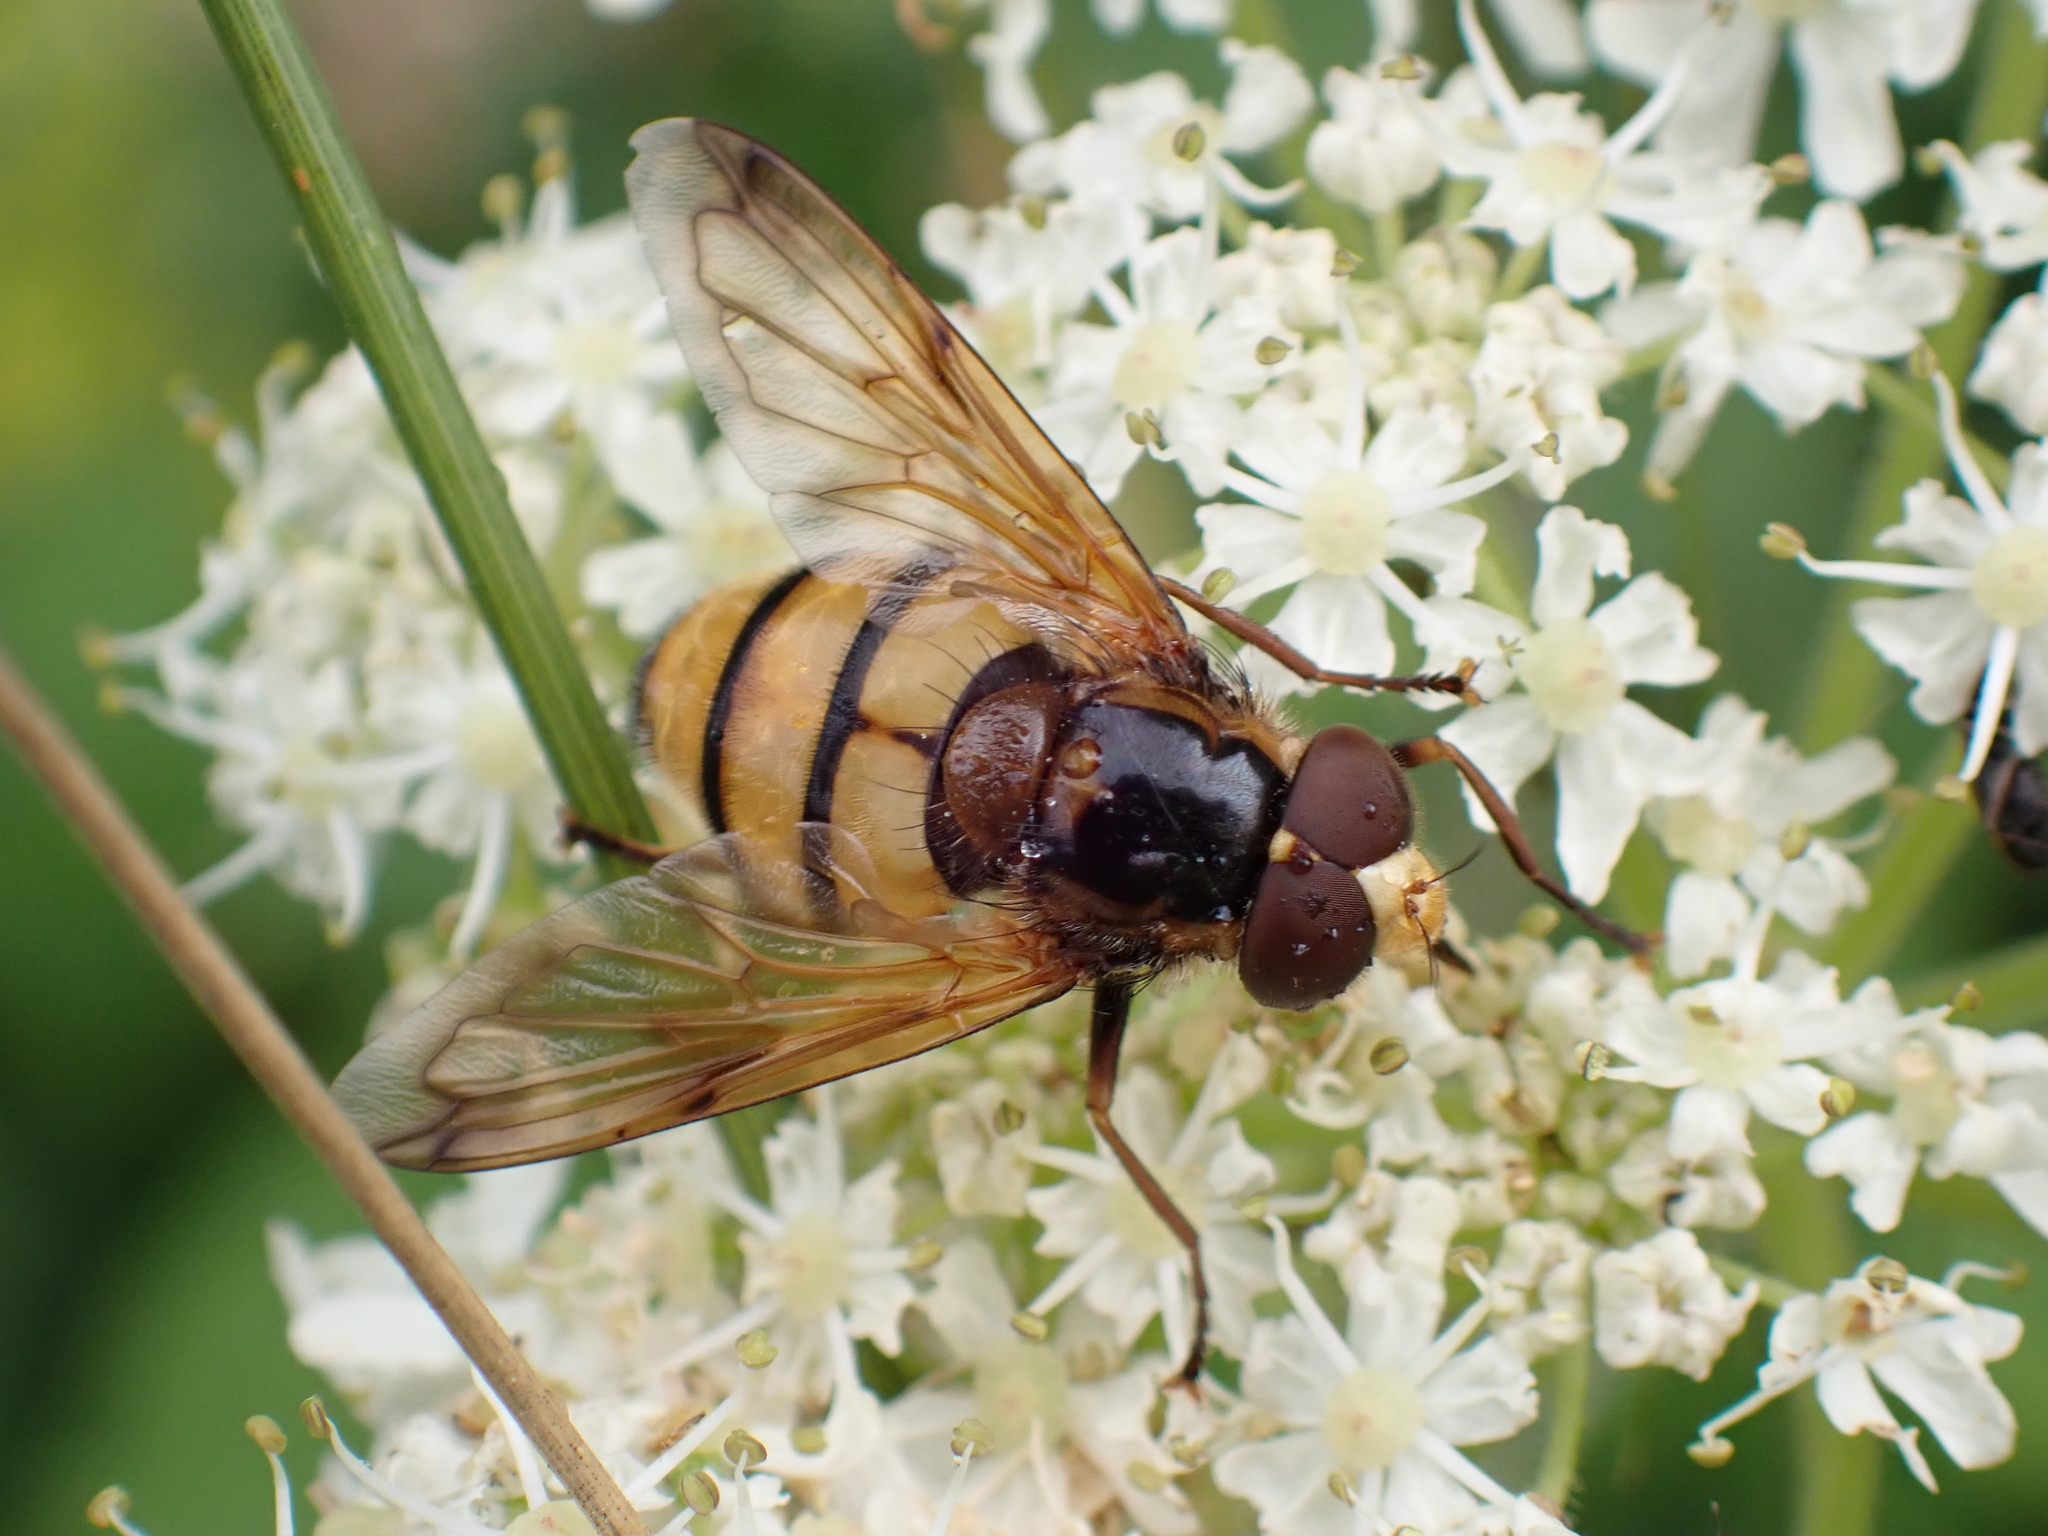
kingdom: Animalia
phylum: Arthropoda
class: Insecta
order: Diptera
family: Syrphidae
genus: Volucella
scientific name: Volucella inanis
